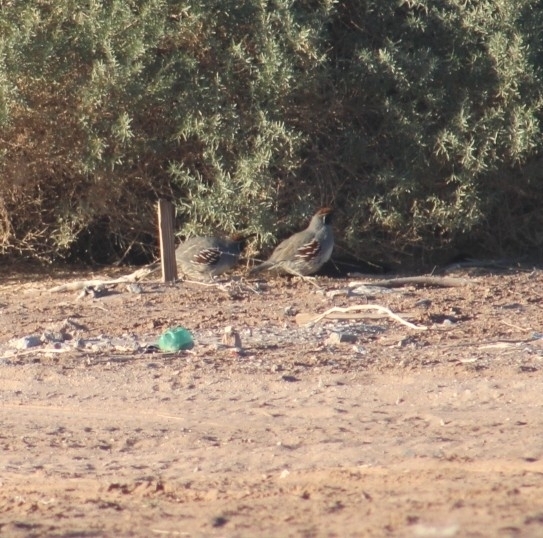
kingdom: Animalia
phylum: Chordata
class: Aves
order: Galliformes
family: Odontophoridae
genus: Callipepla
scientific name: Callipepla gambelii
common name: Gambel's quail
